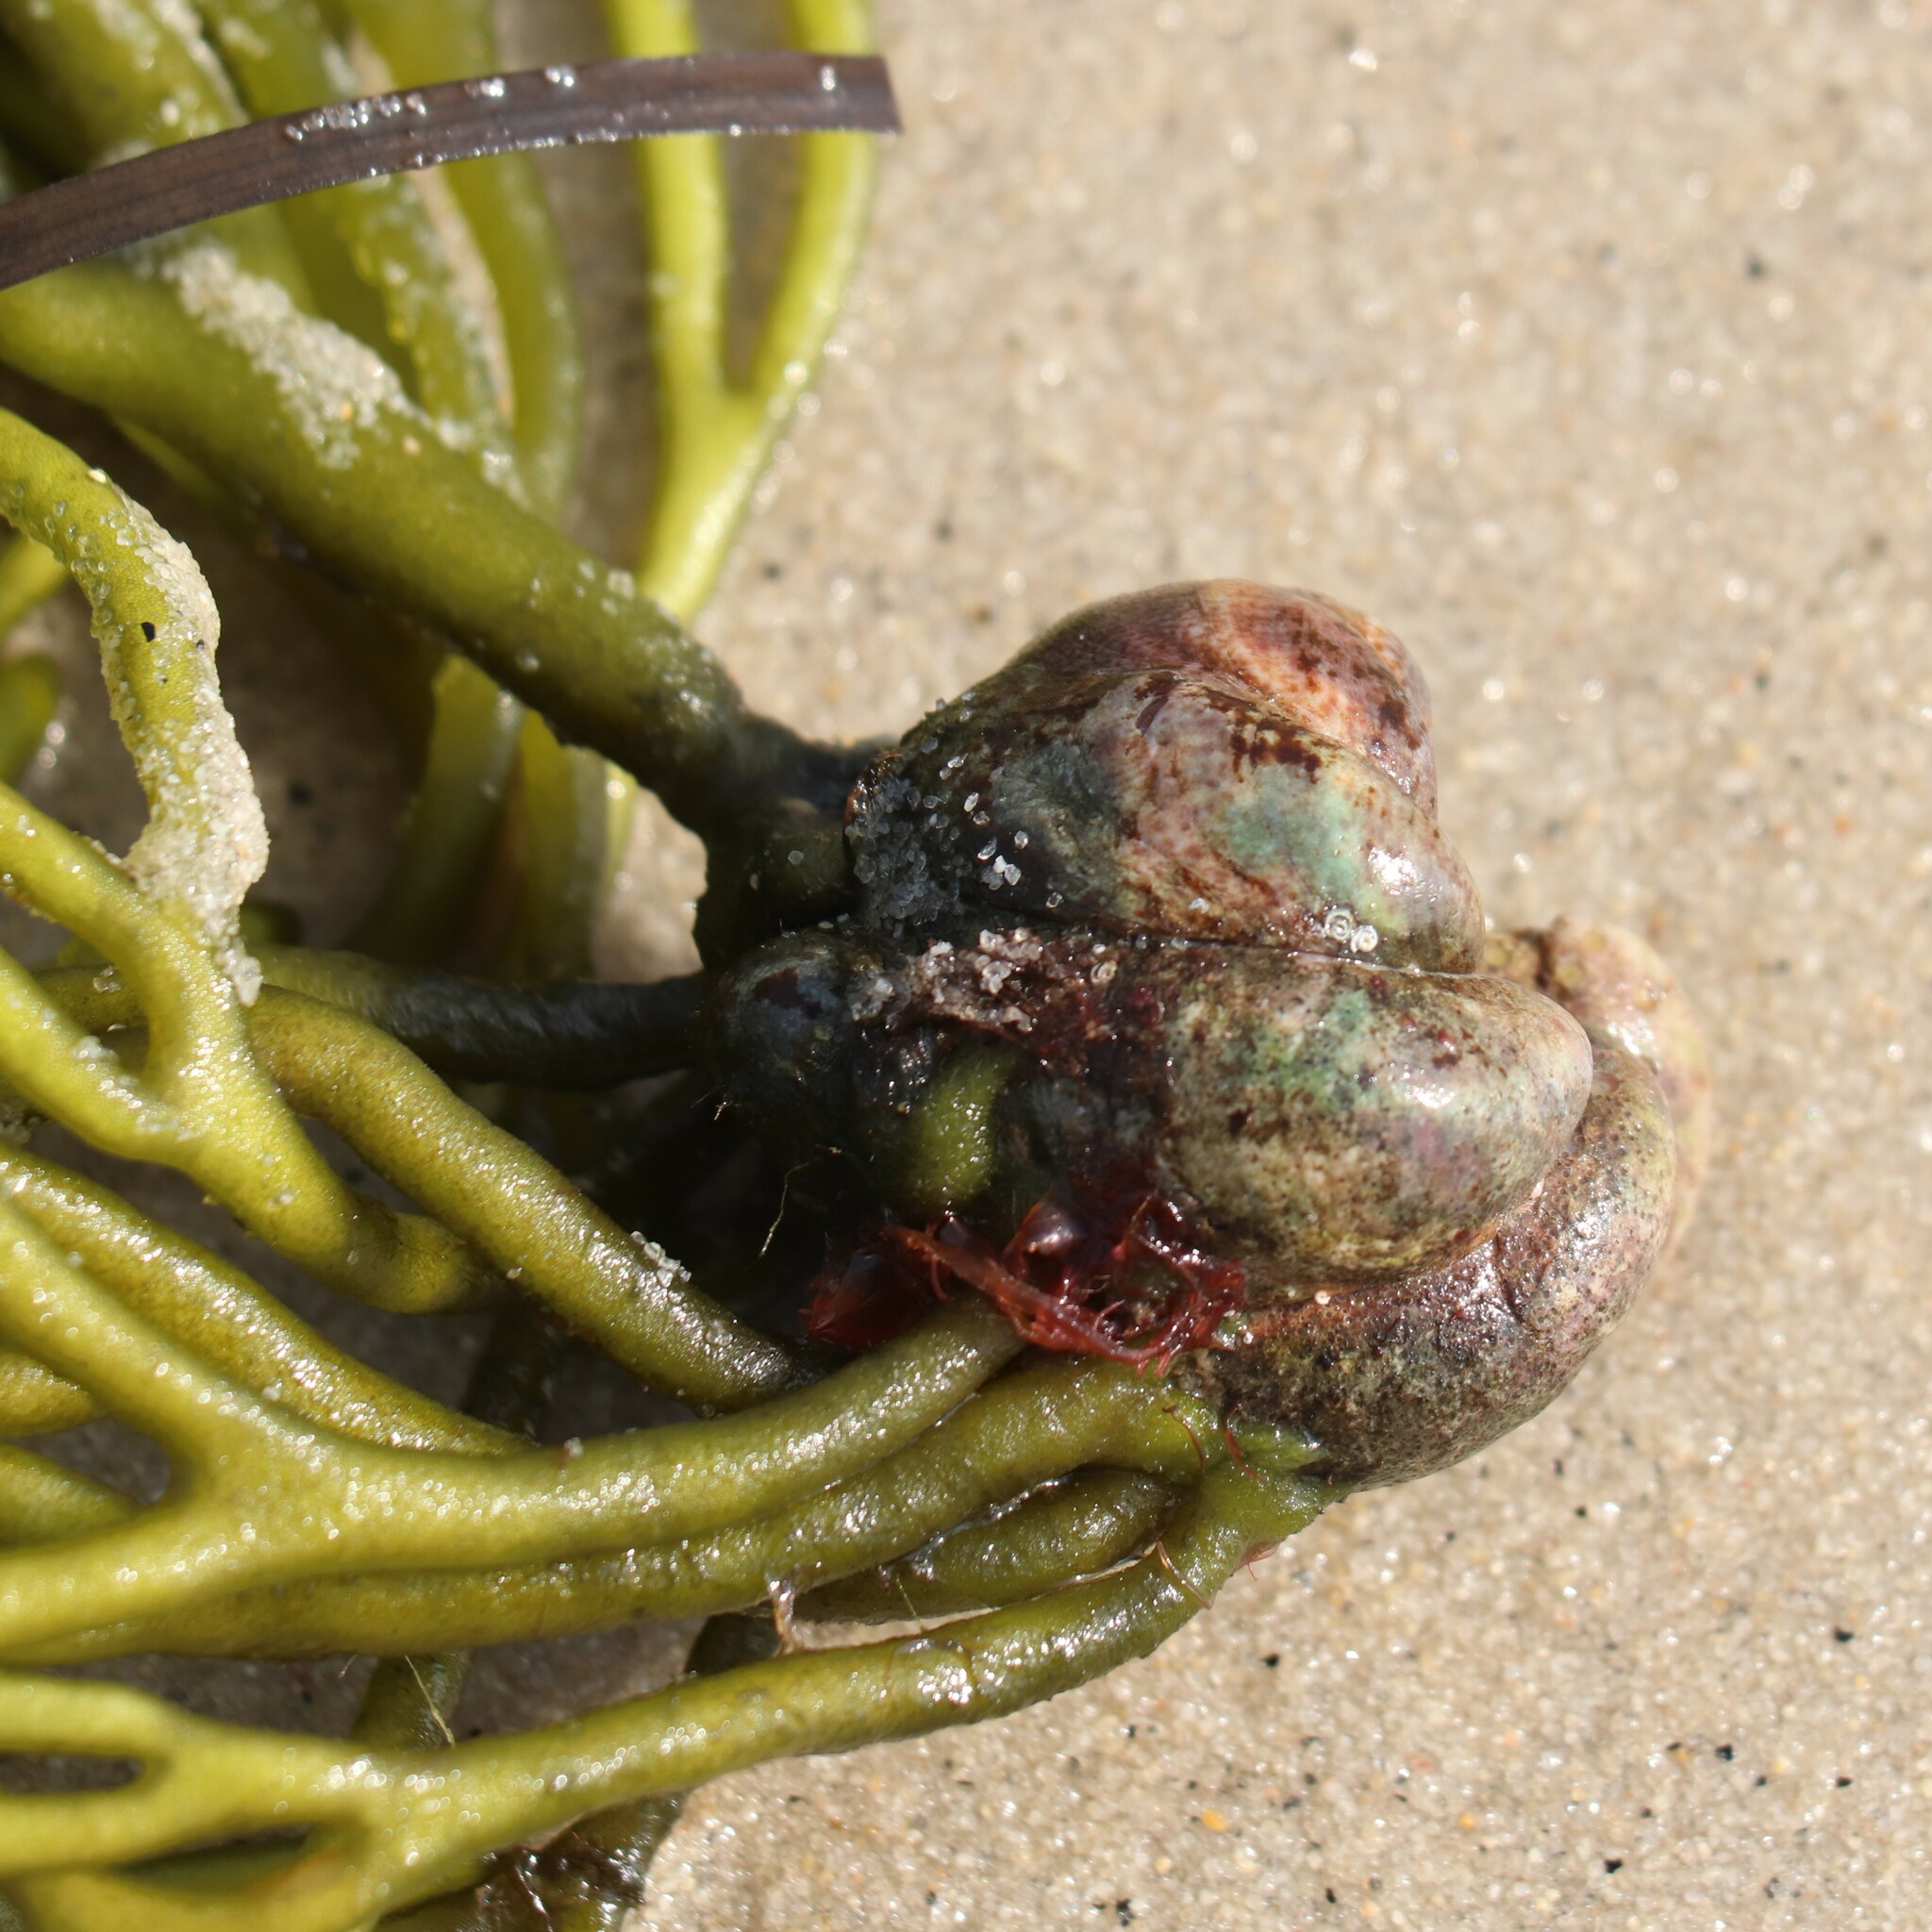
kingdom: Animalia
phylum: Mollusca
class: Gastropoda
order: Littorinimorpha
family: Calyptraeidae
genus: Crepidula
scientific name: Crepidula fornicata
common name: Slipper limpet
